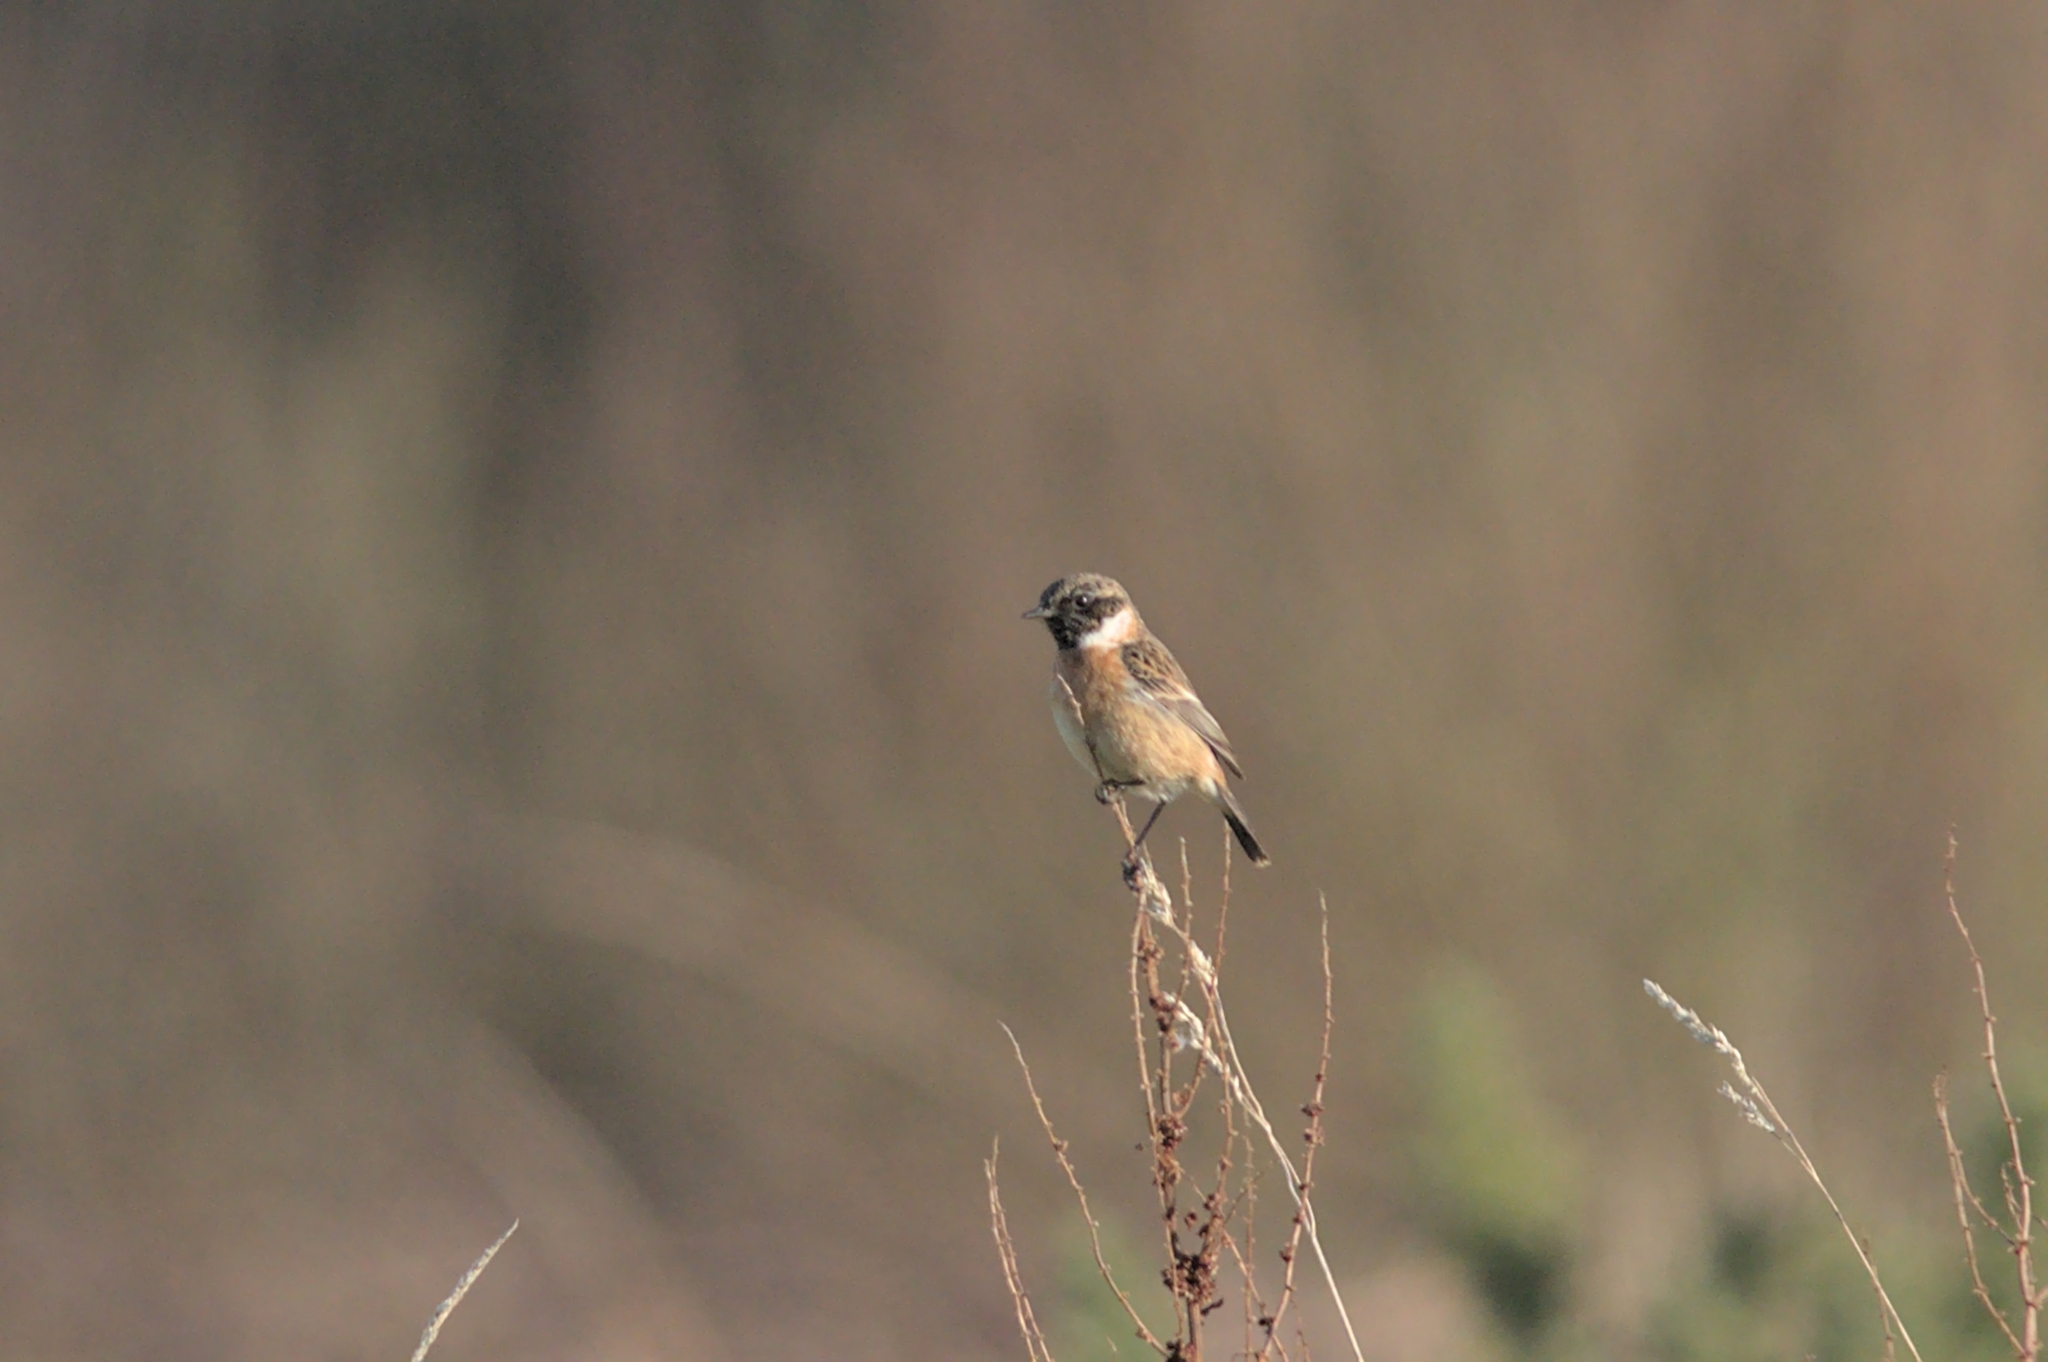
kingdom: Animalia
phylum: Chordata
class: Aves
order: Passeriformes
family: Muscicapidae
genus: Saxicola
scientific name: Saxicola rubicola
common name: European stonechat
